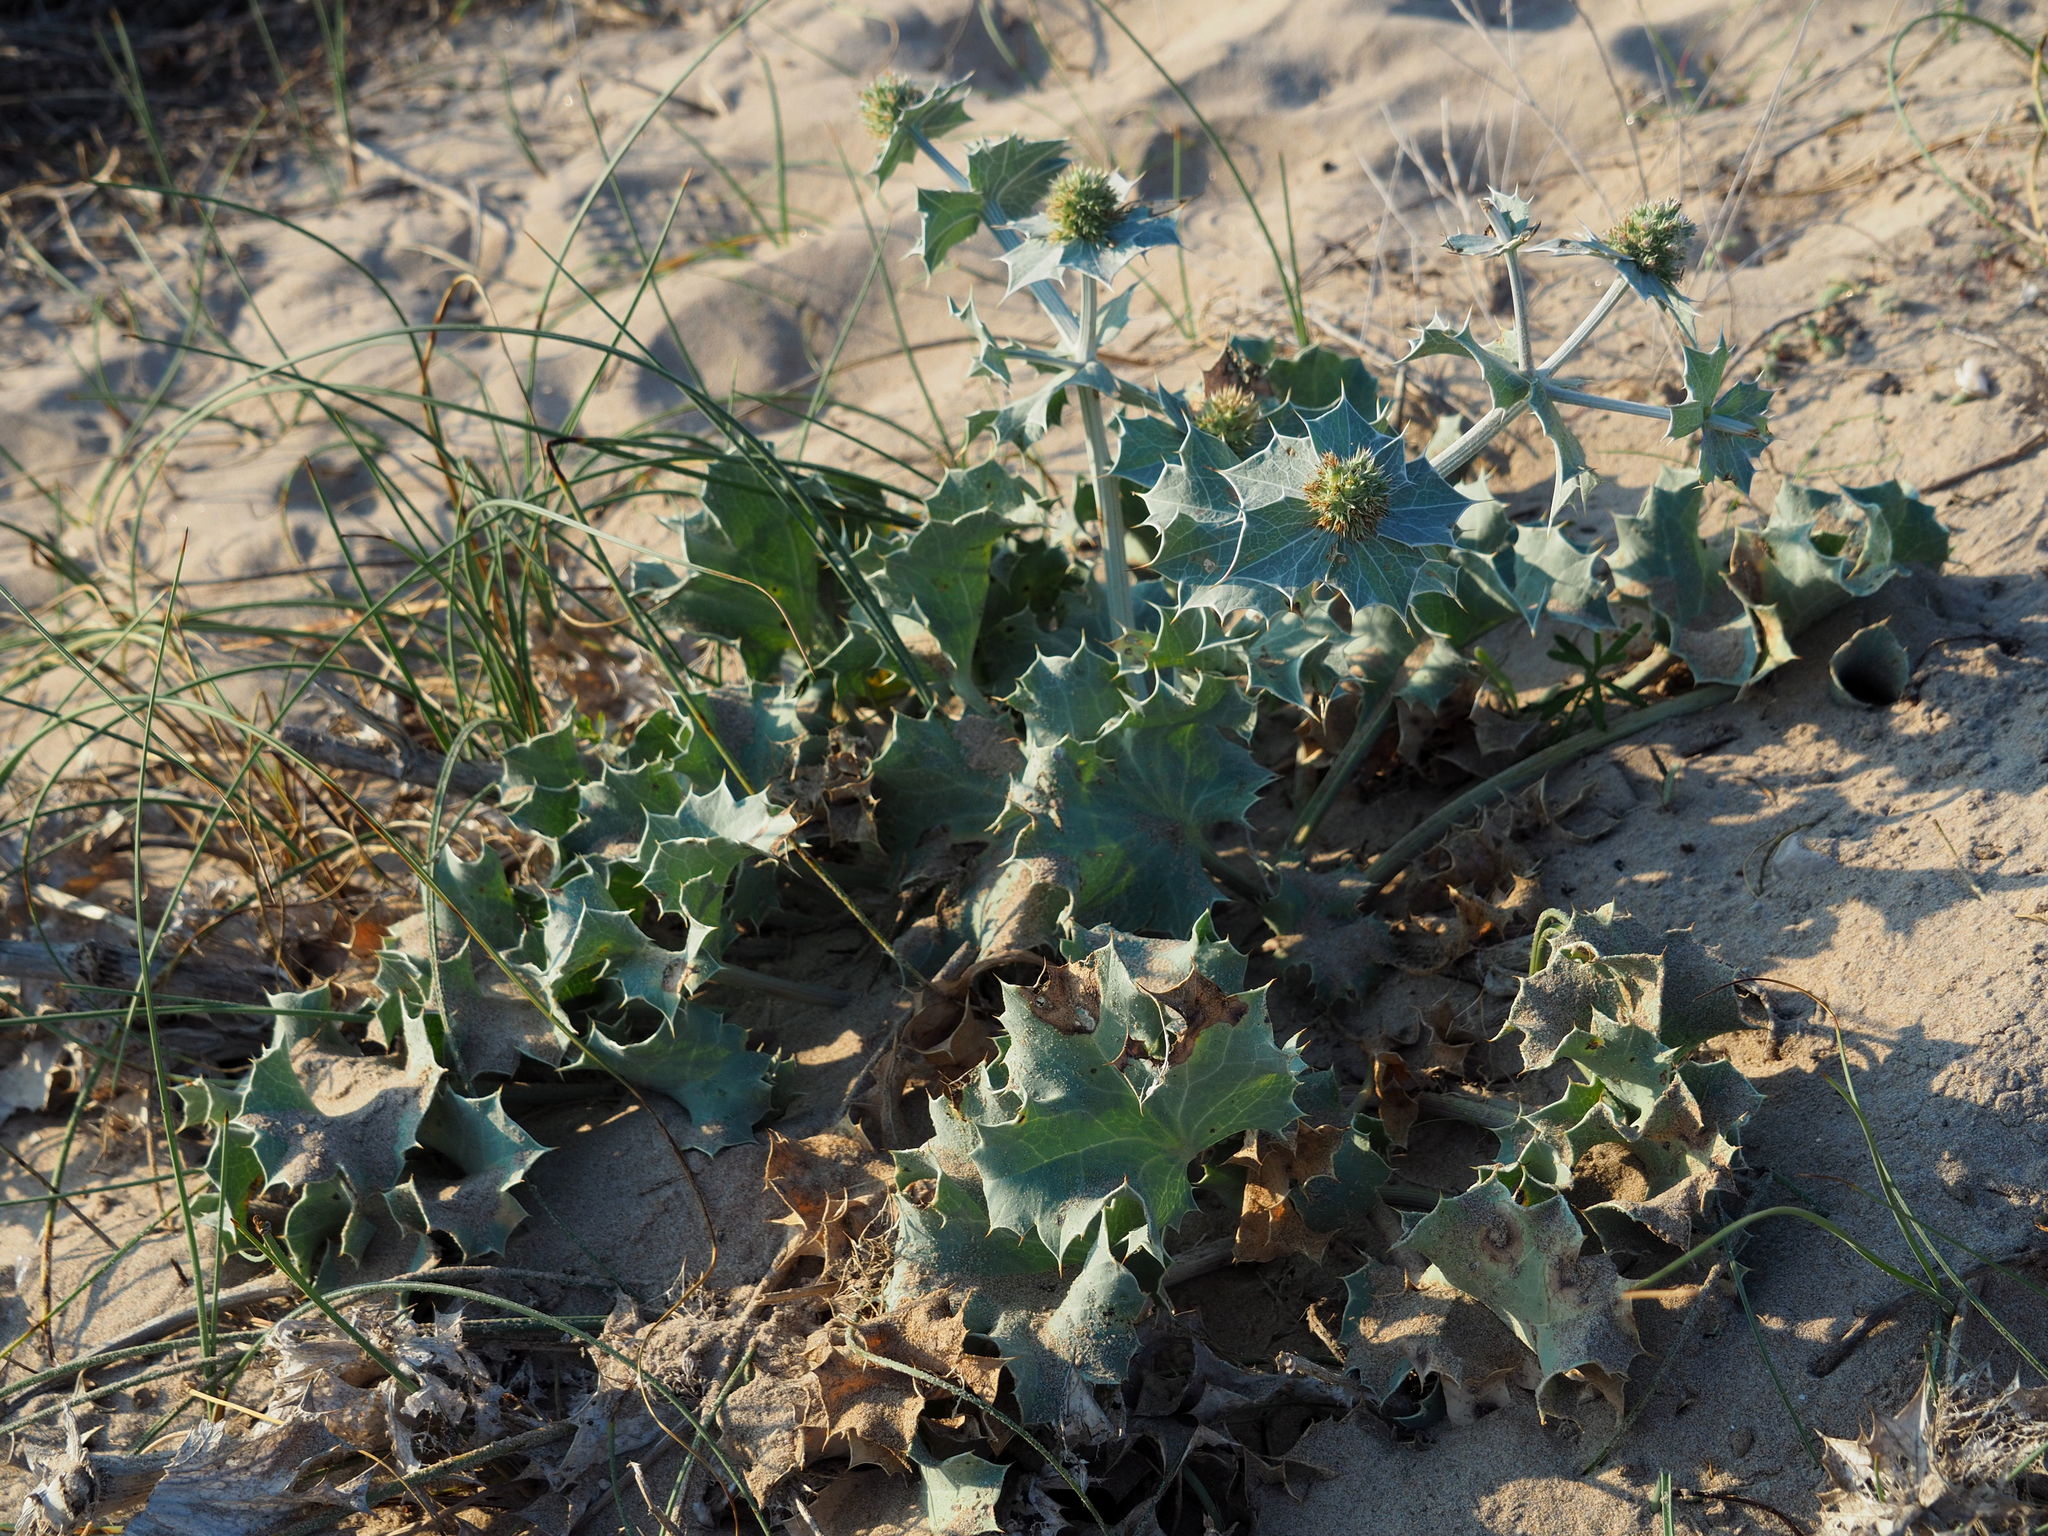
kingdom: Plantae
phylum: Tracheophyta
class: Magnoliopsida
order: Apiales
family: Apiaceae
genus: Eryngium
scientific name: Eryngium maritimum
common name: Sea-holly
